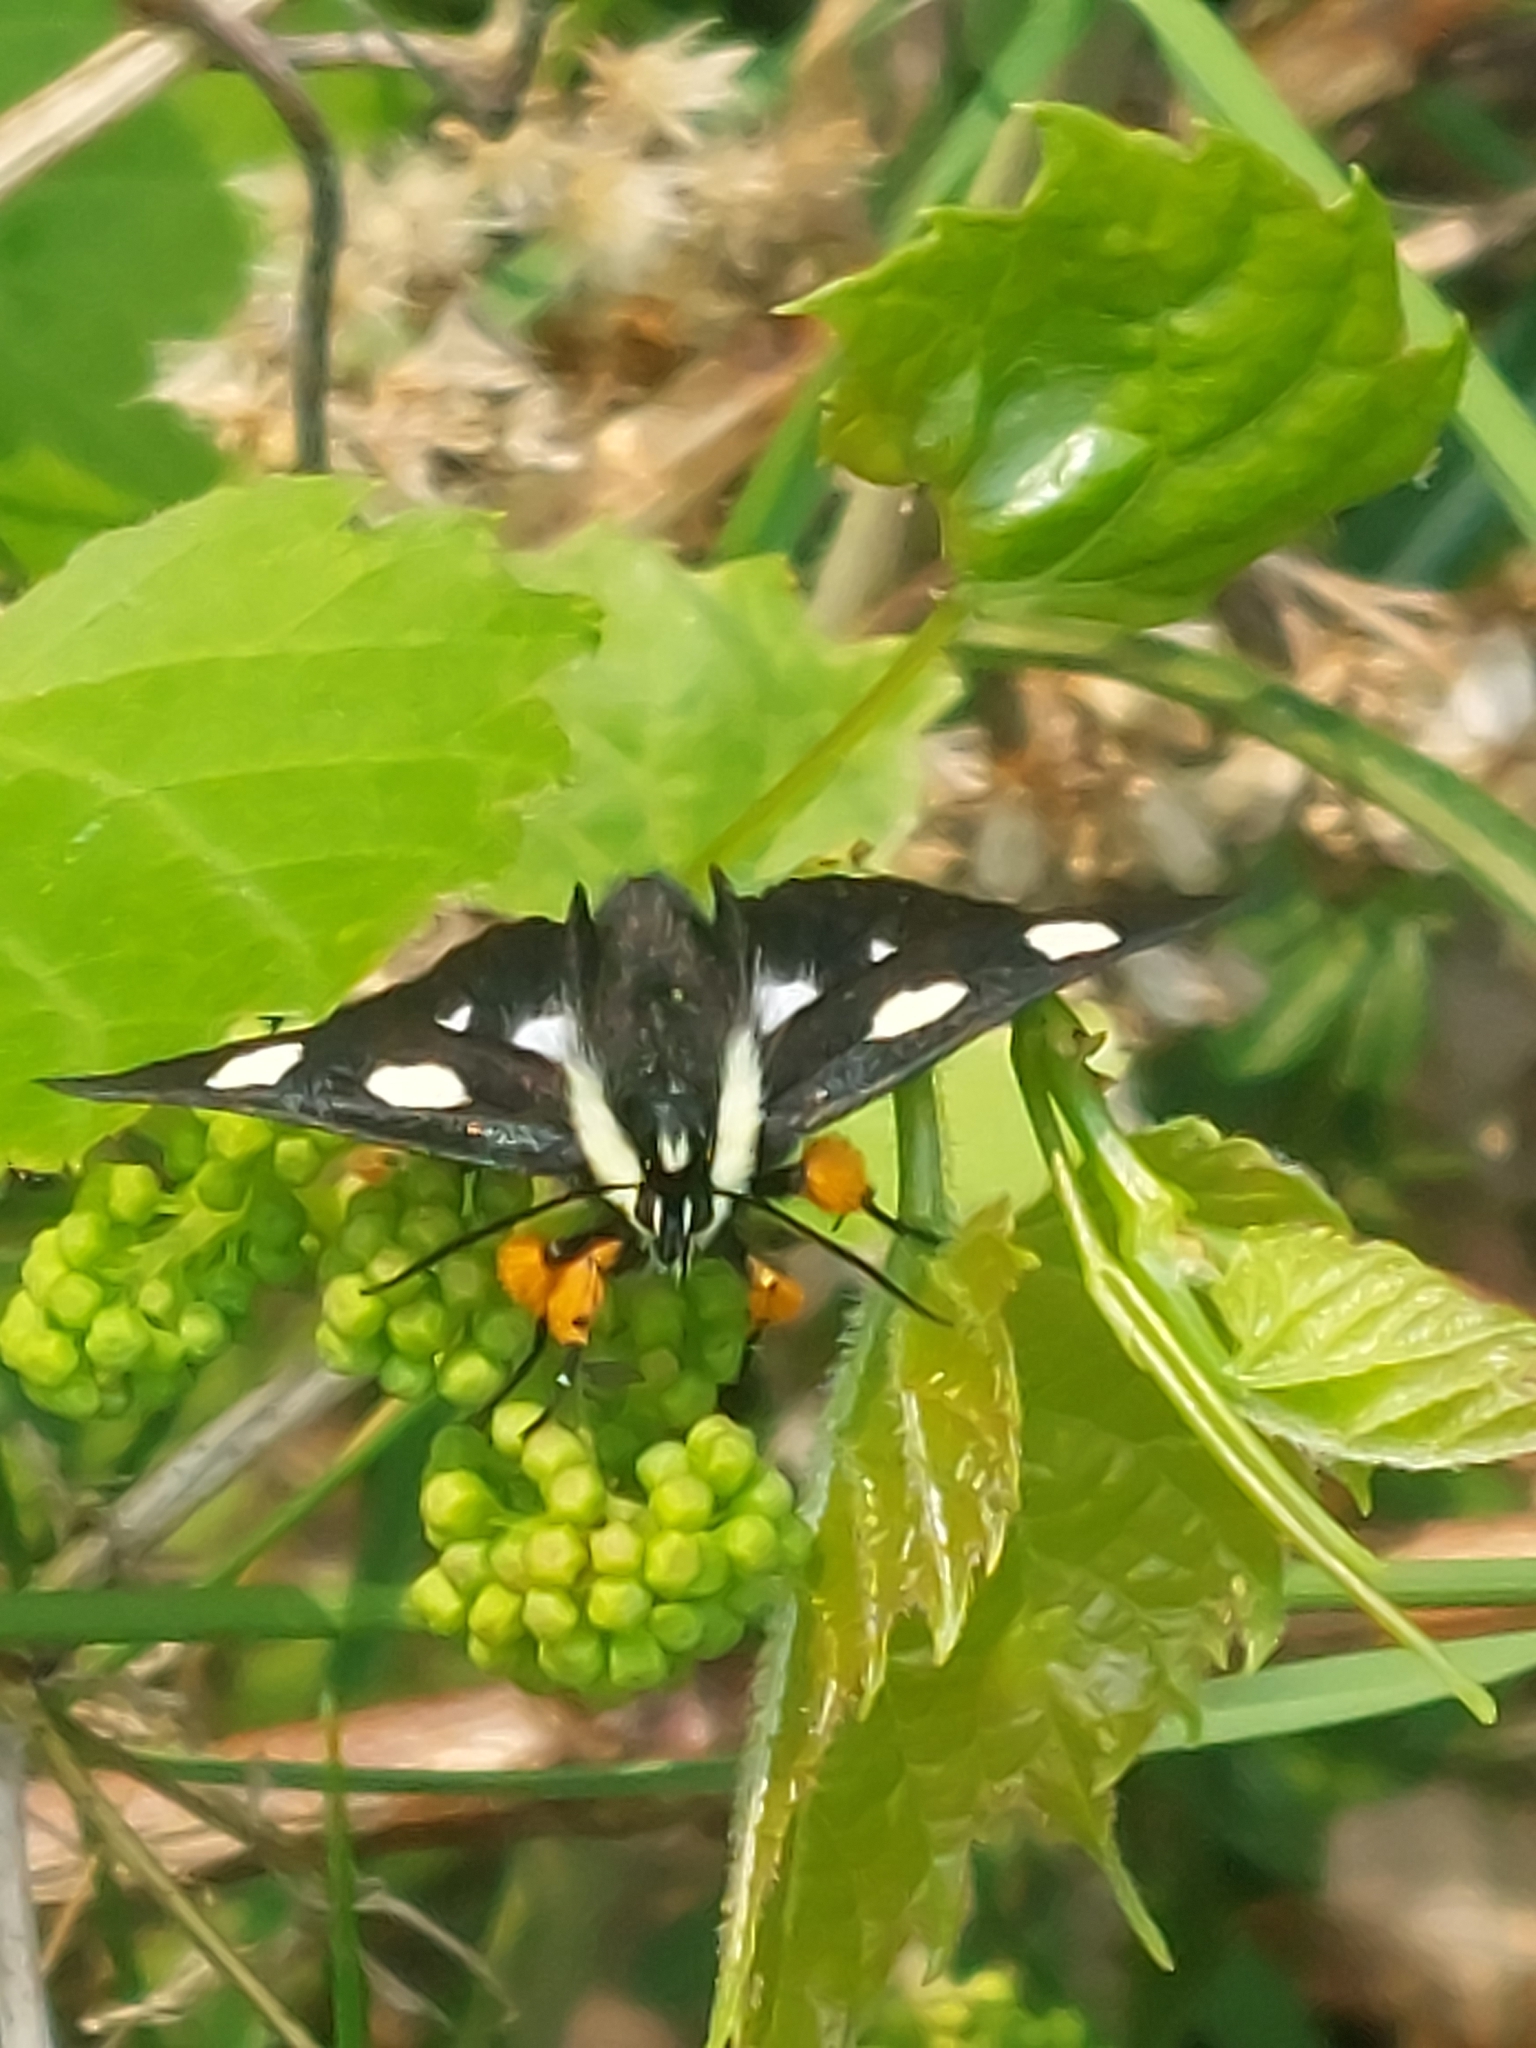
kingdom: Animalia
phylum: Arthropoda
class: Insecta
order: Lepidoptera
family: Noctuidae
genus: Alypia
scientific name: Alypia octomaculata
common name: Eight-spotted forester
